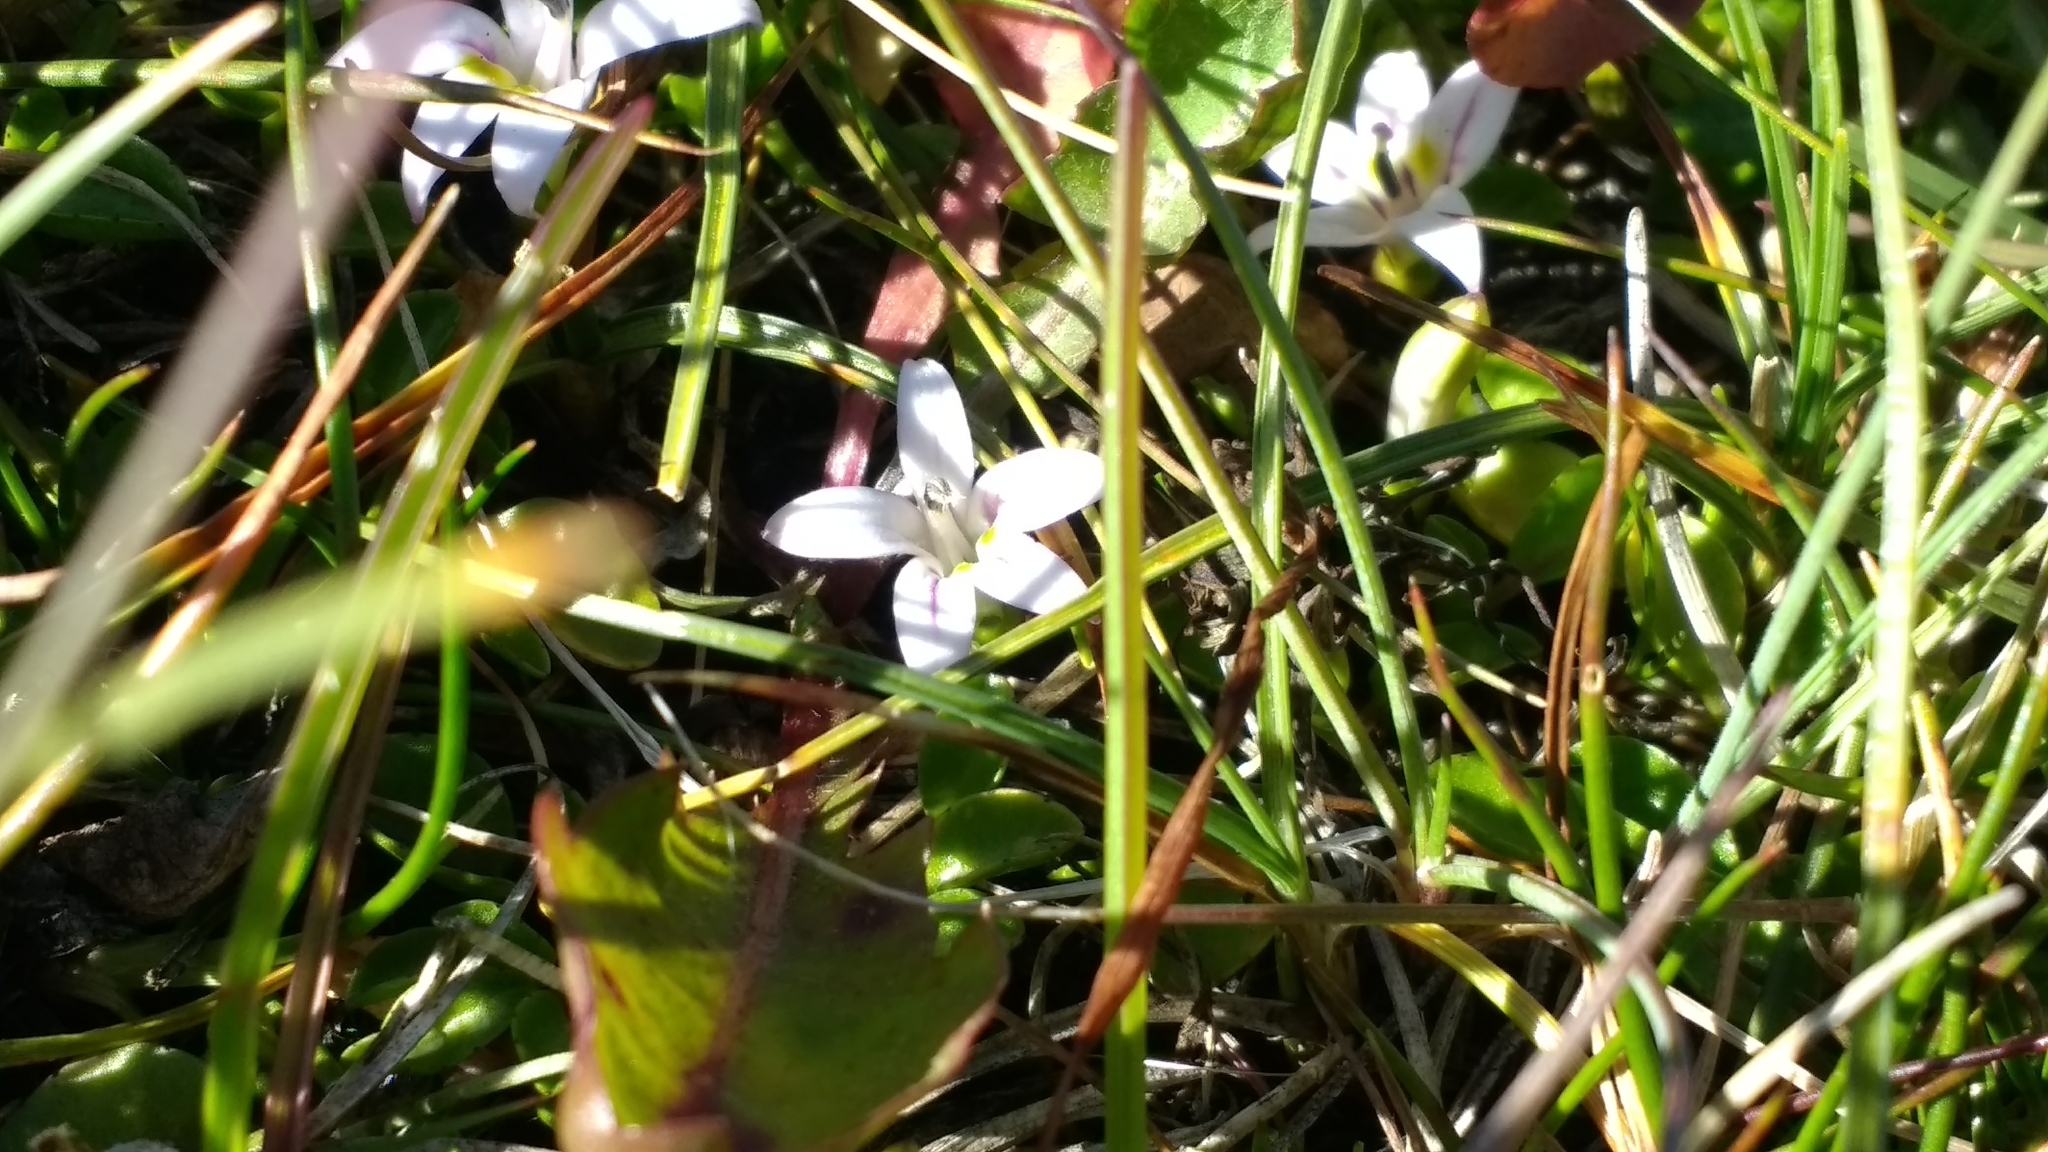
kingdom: Plantae
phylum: Tracheophyta
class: Magnoliopsida
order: Asterales
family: Campanulaceae
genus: Lobelia
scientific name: Lobelia oligophylla
